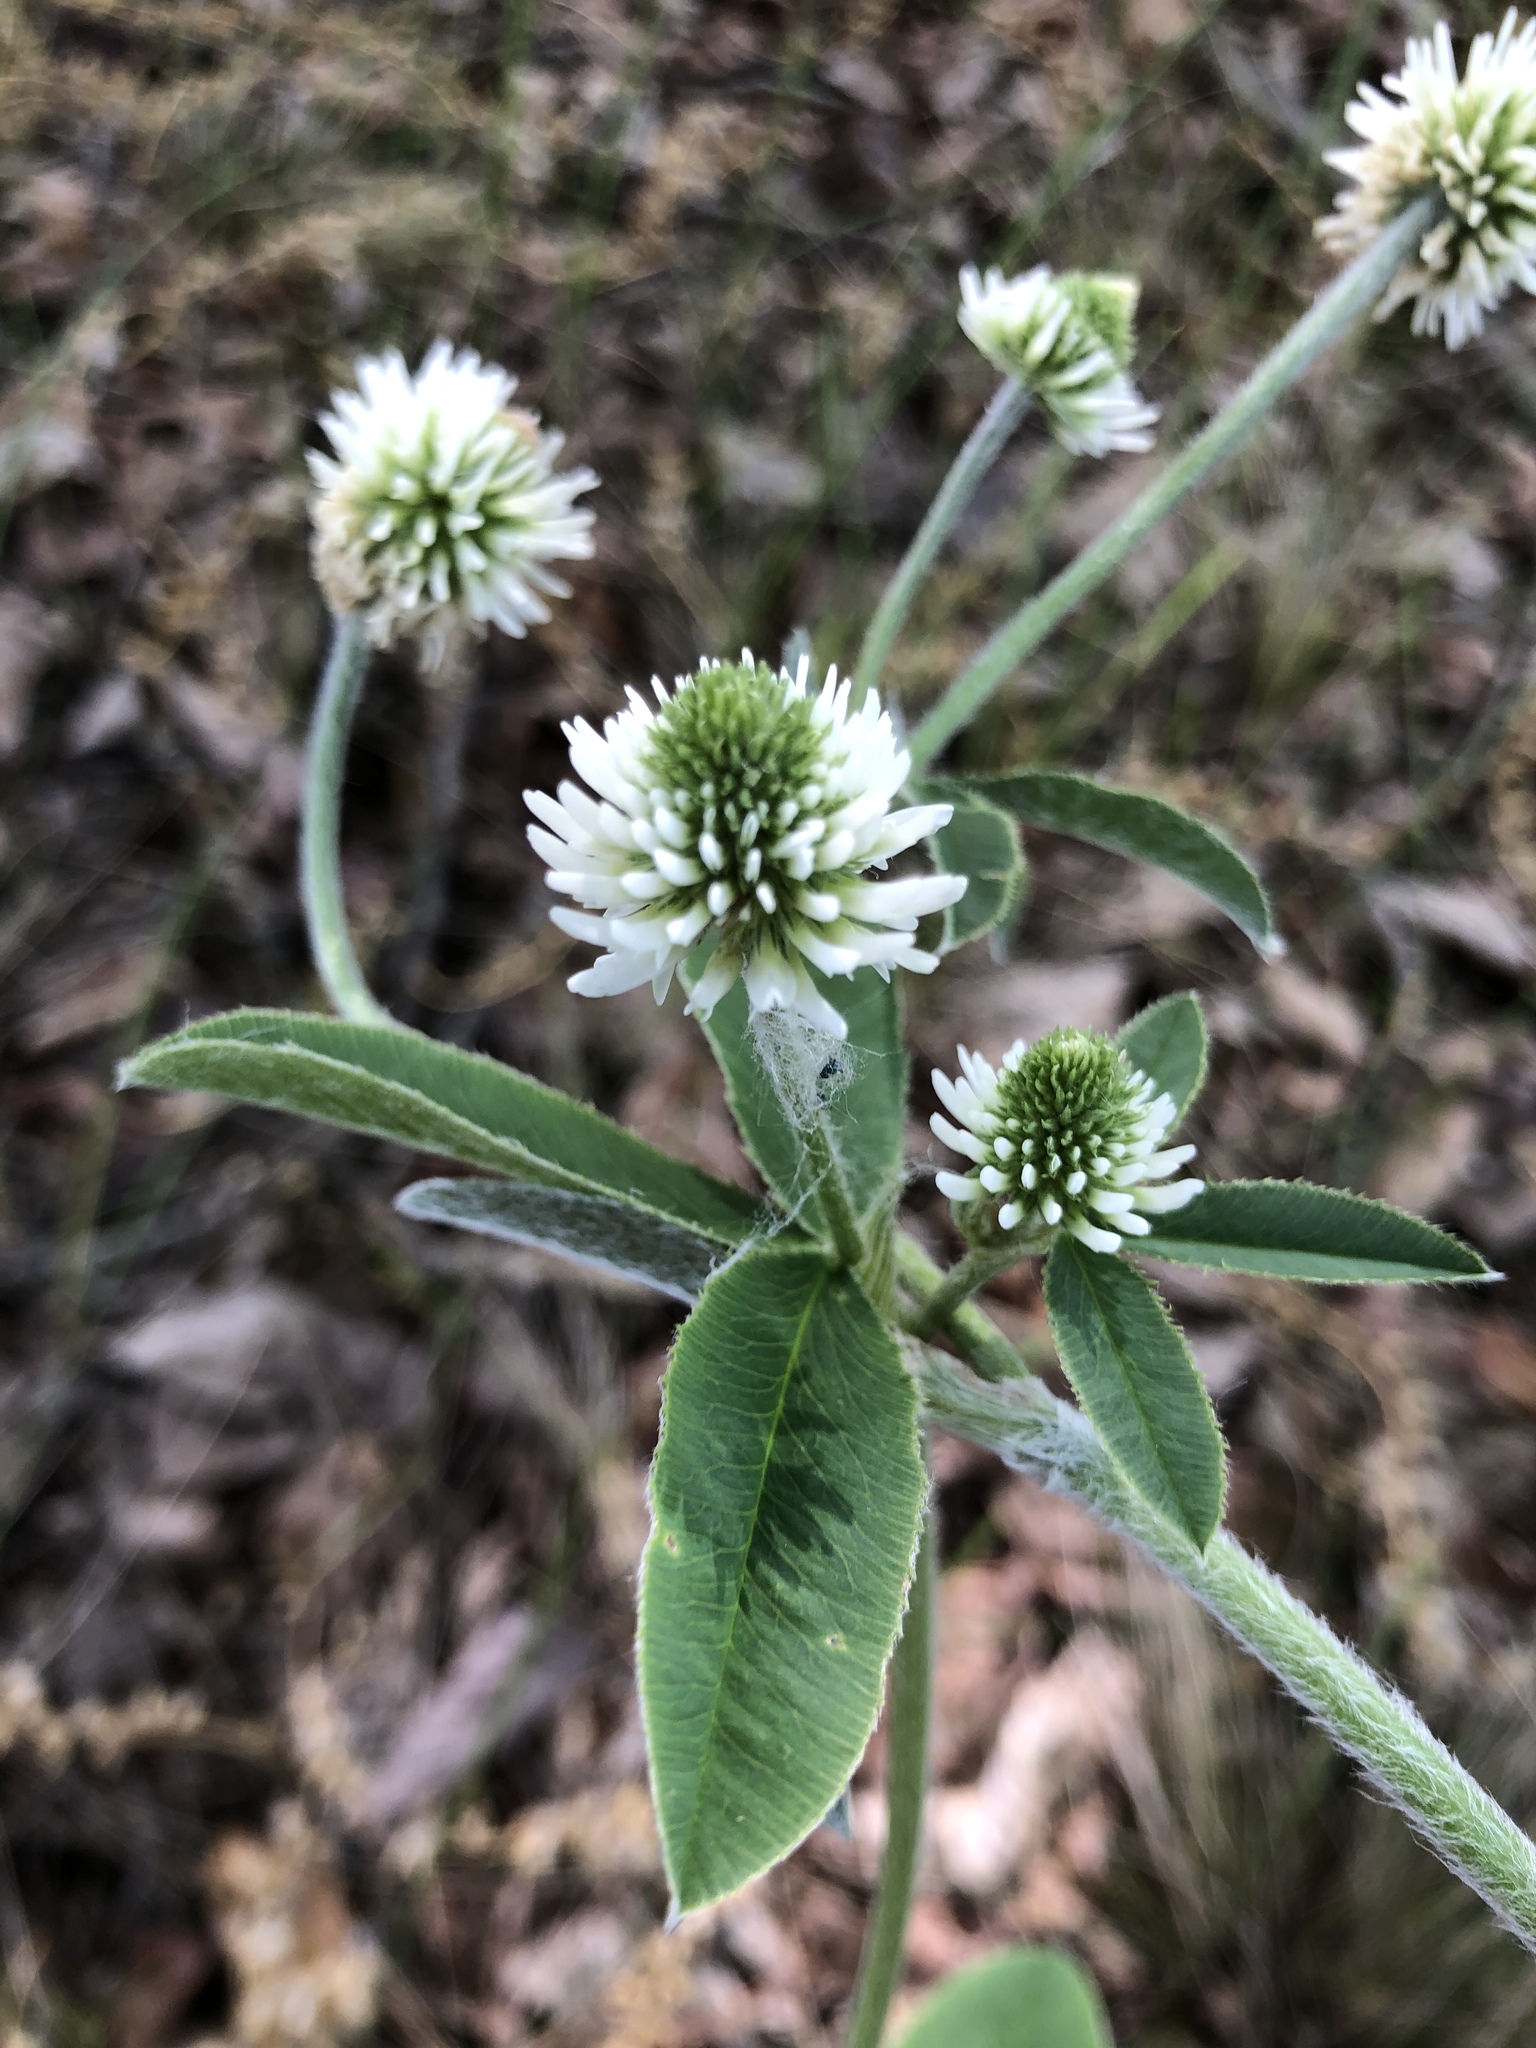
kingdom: Plantae
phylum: Tracheophyta
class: Magnoliopsida
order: Fabales
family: Fabaceae
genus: Trifolium
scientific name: Trifolium montanum
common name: Mountain clover
